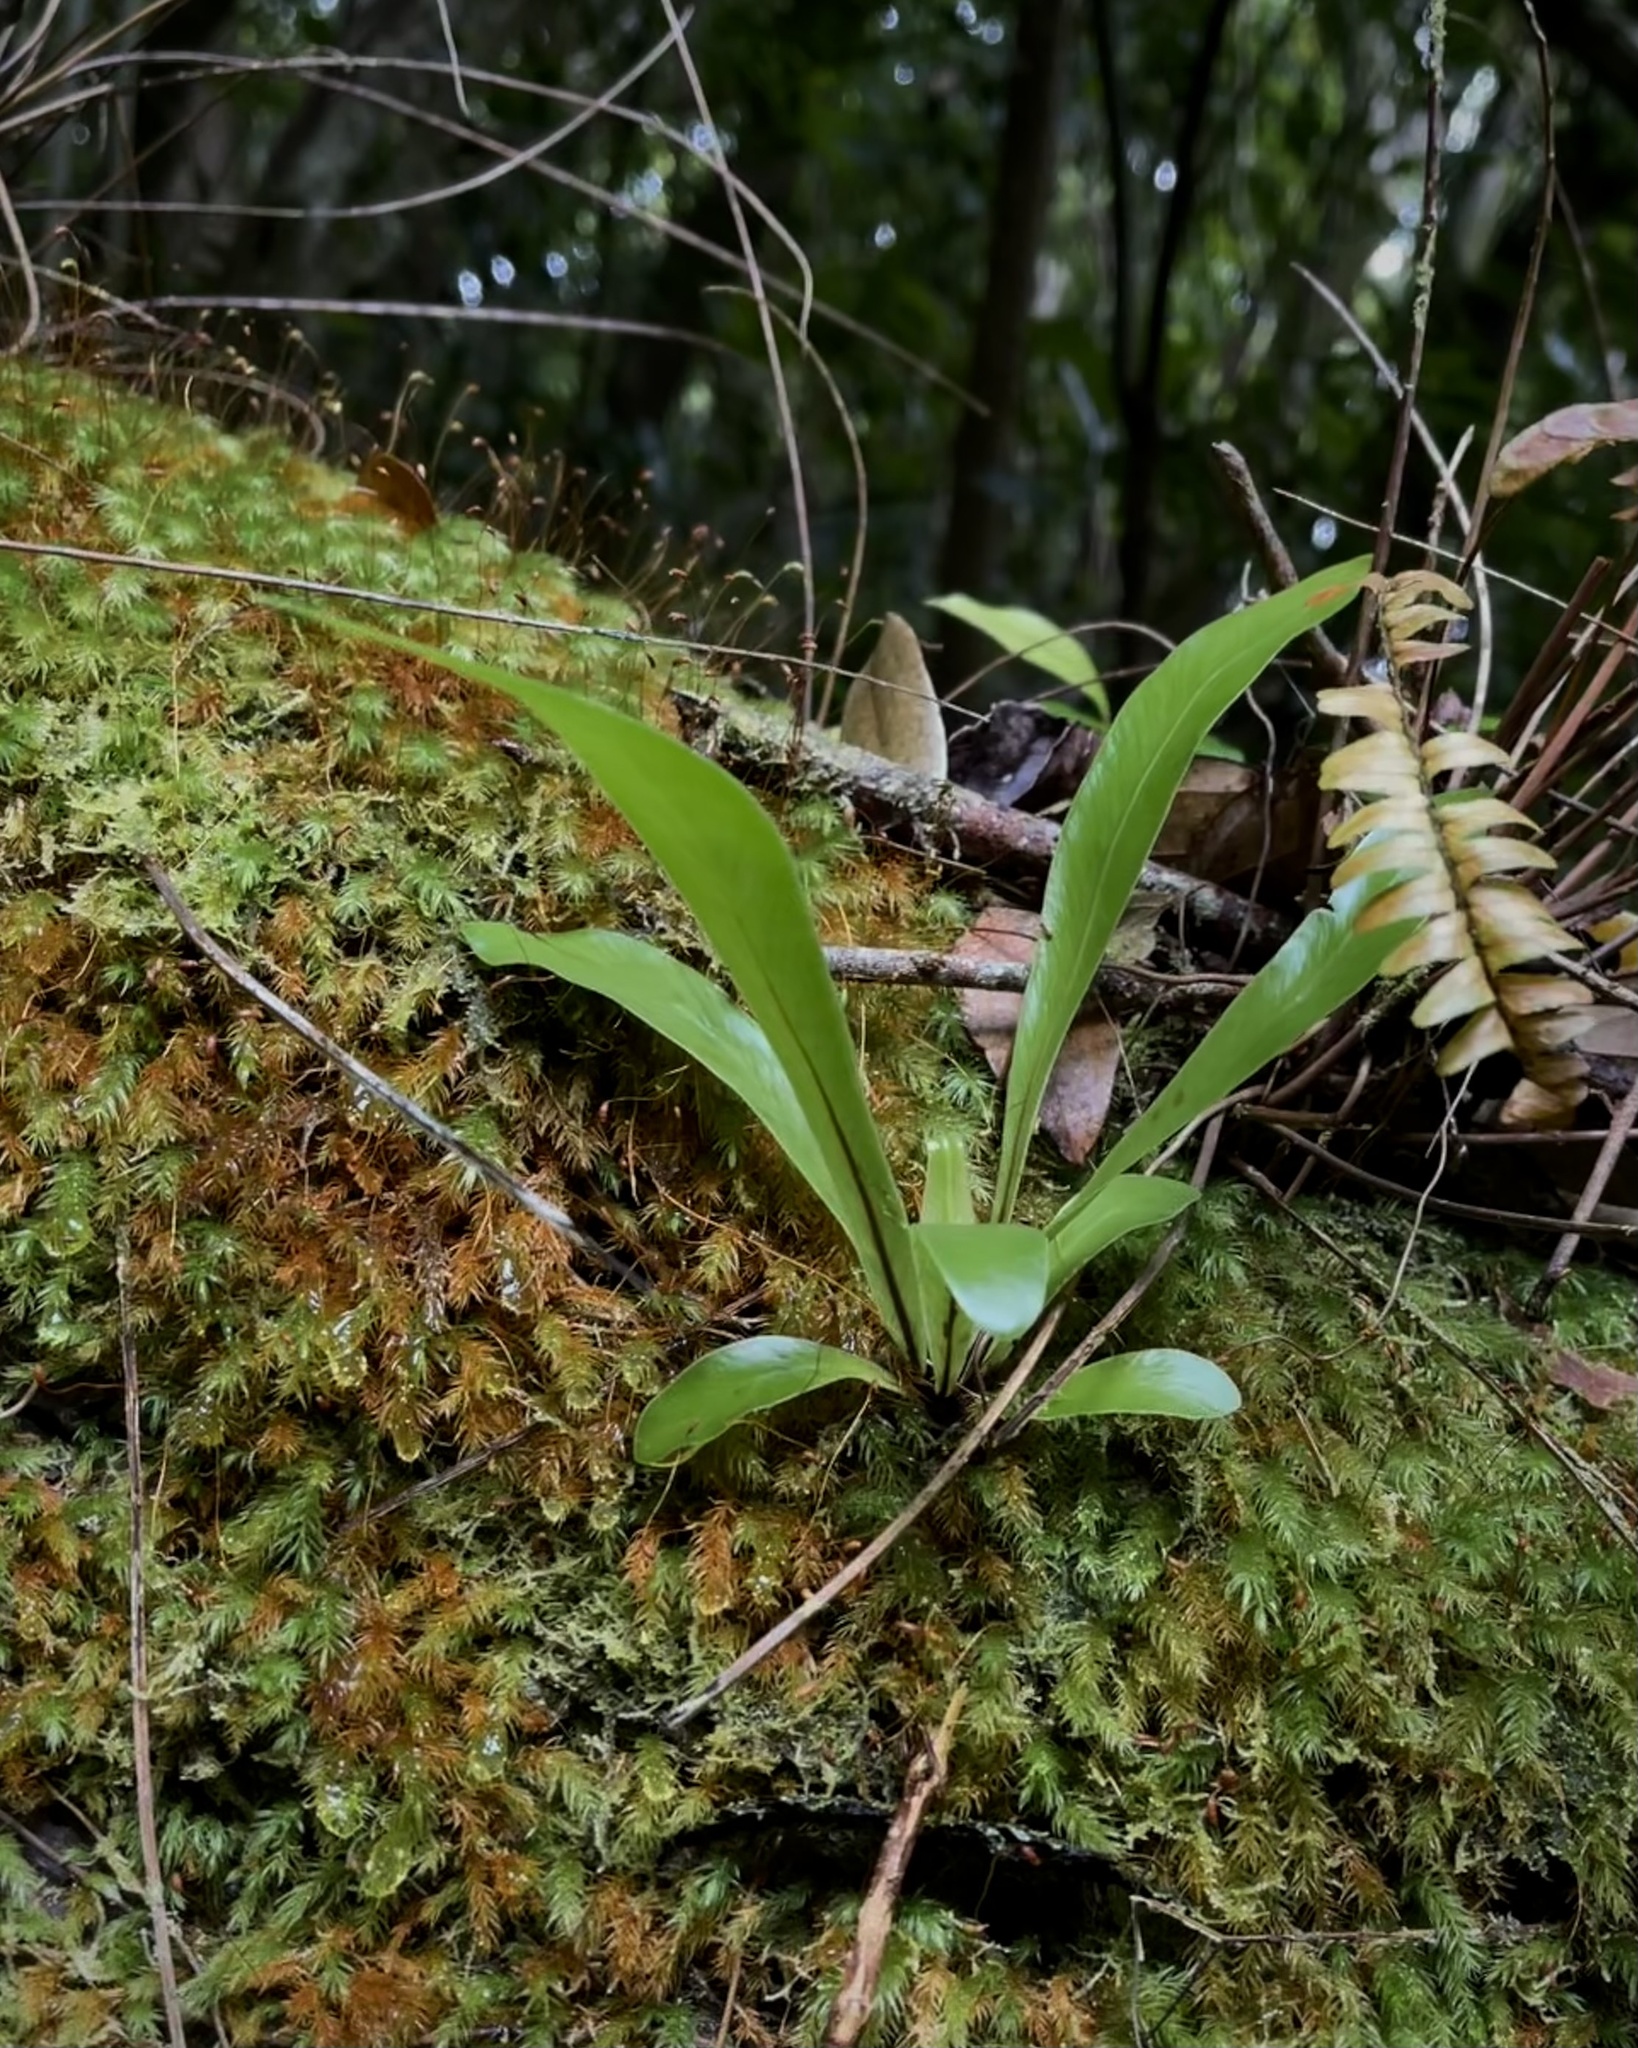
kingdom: Plantae
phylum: Tracheophyta
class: Polypodiopsida
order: Polypodiales
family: Aspleniaceae
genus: Asplenium
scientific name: Asplenium nidus
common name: Bird's-nest fern
